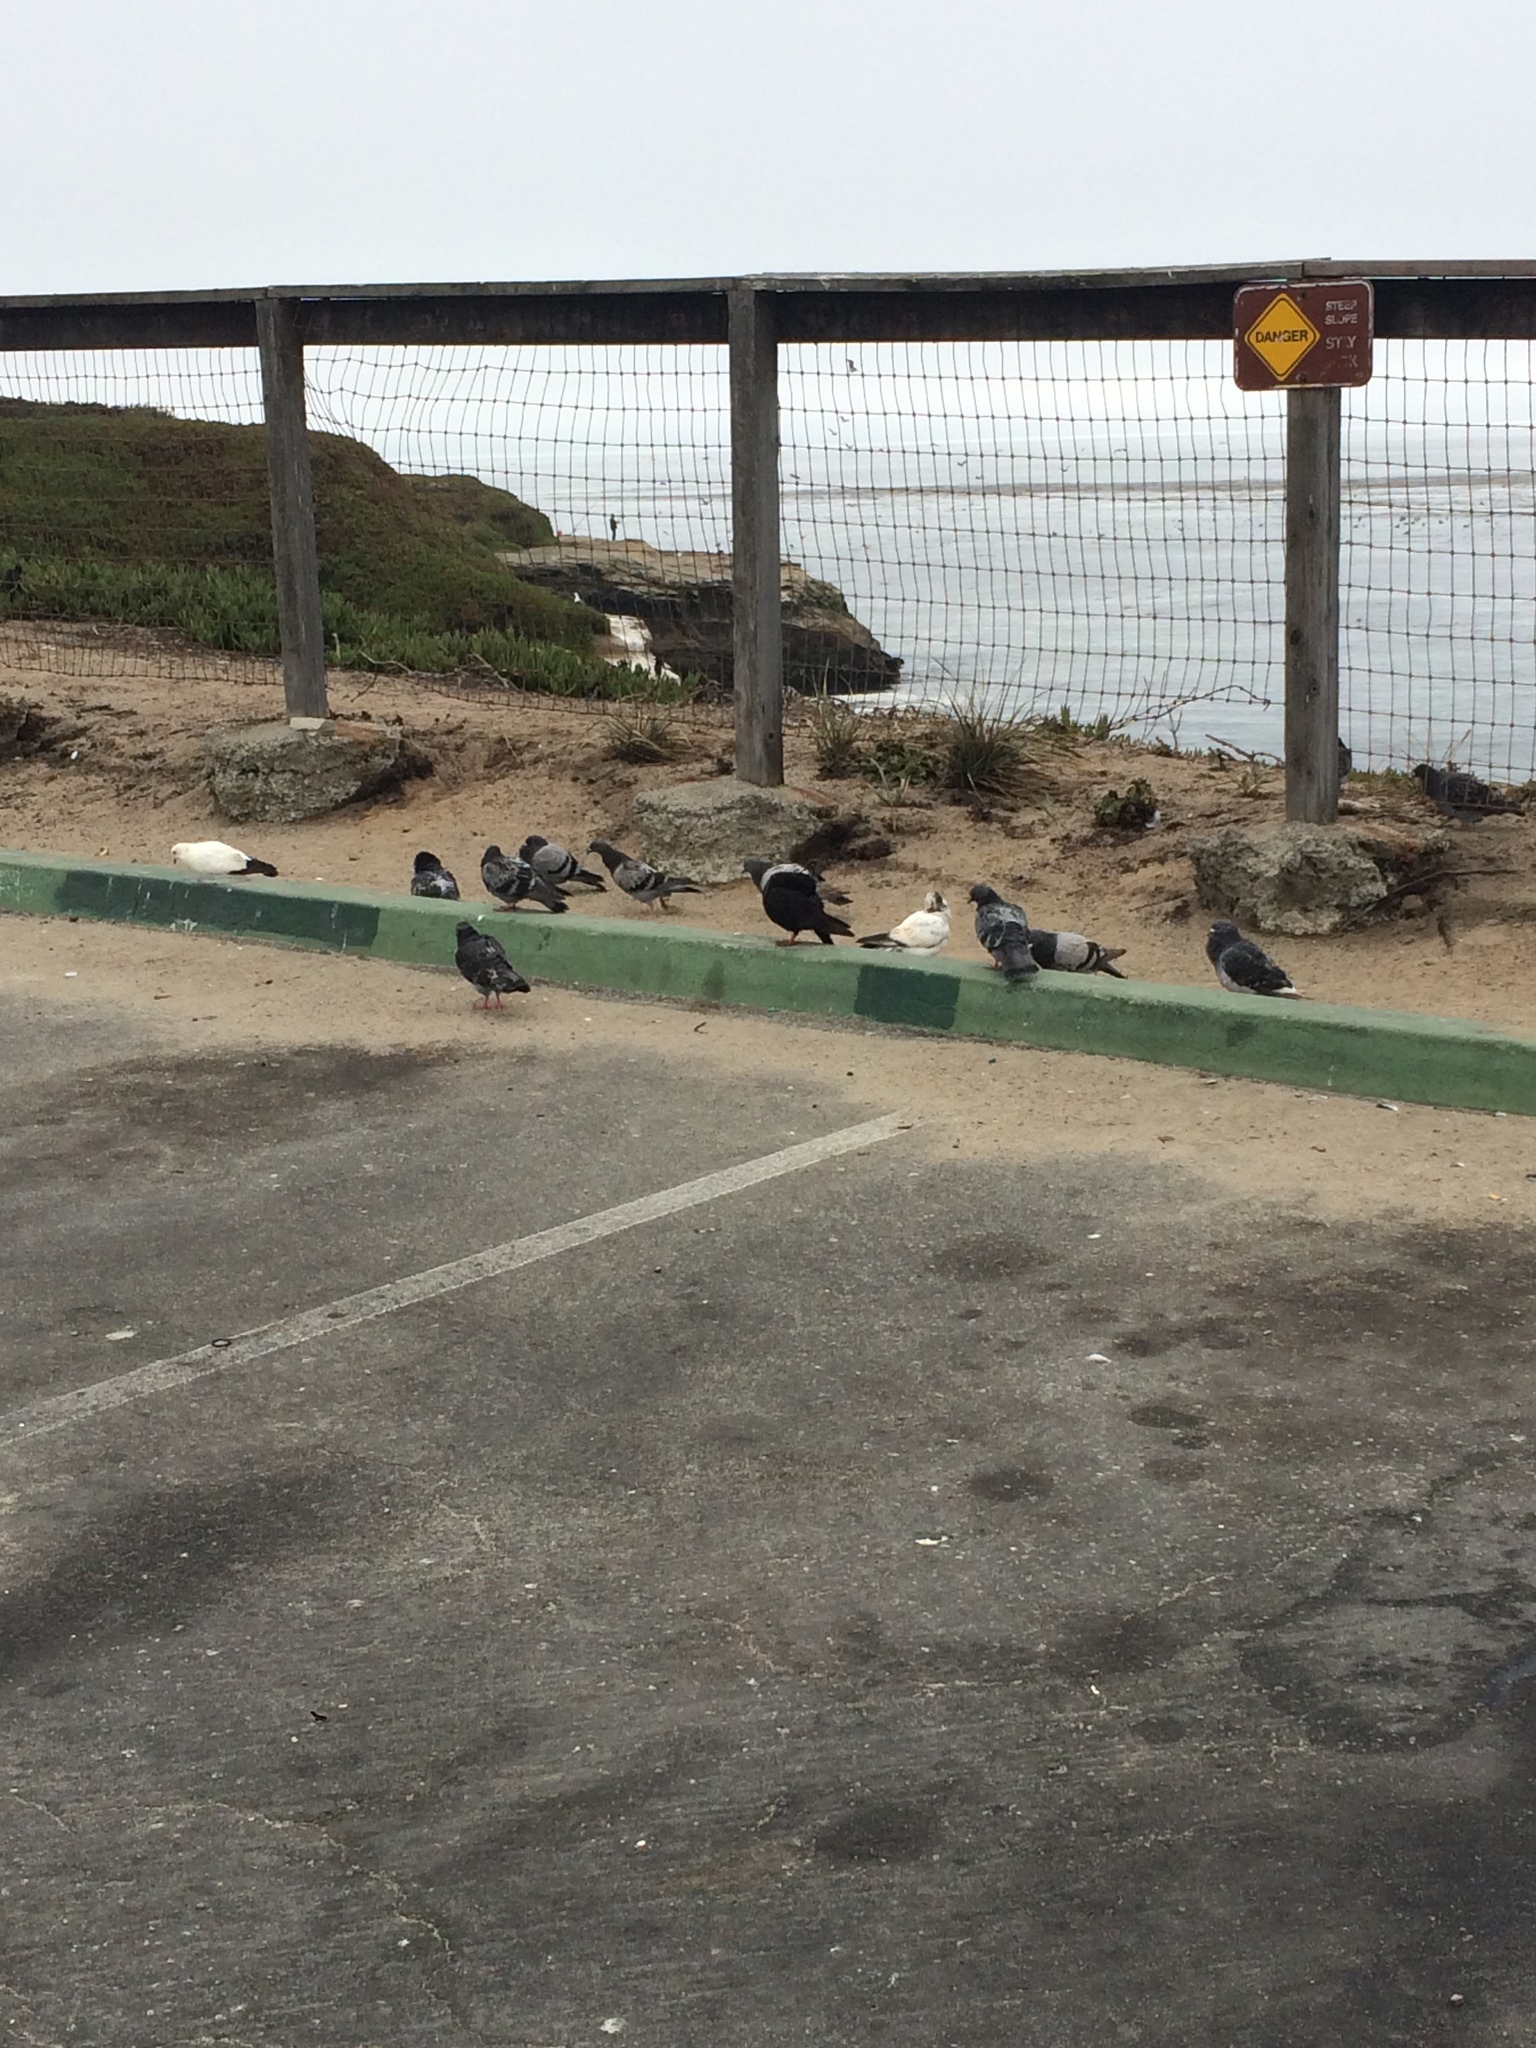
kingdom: Animalia
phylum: Chordata
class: Aves
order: Columbiformes
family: Columbidae
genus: Columba
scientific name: Columba livia
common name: Rock pigeon
